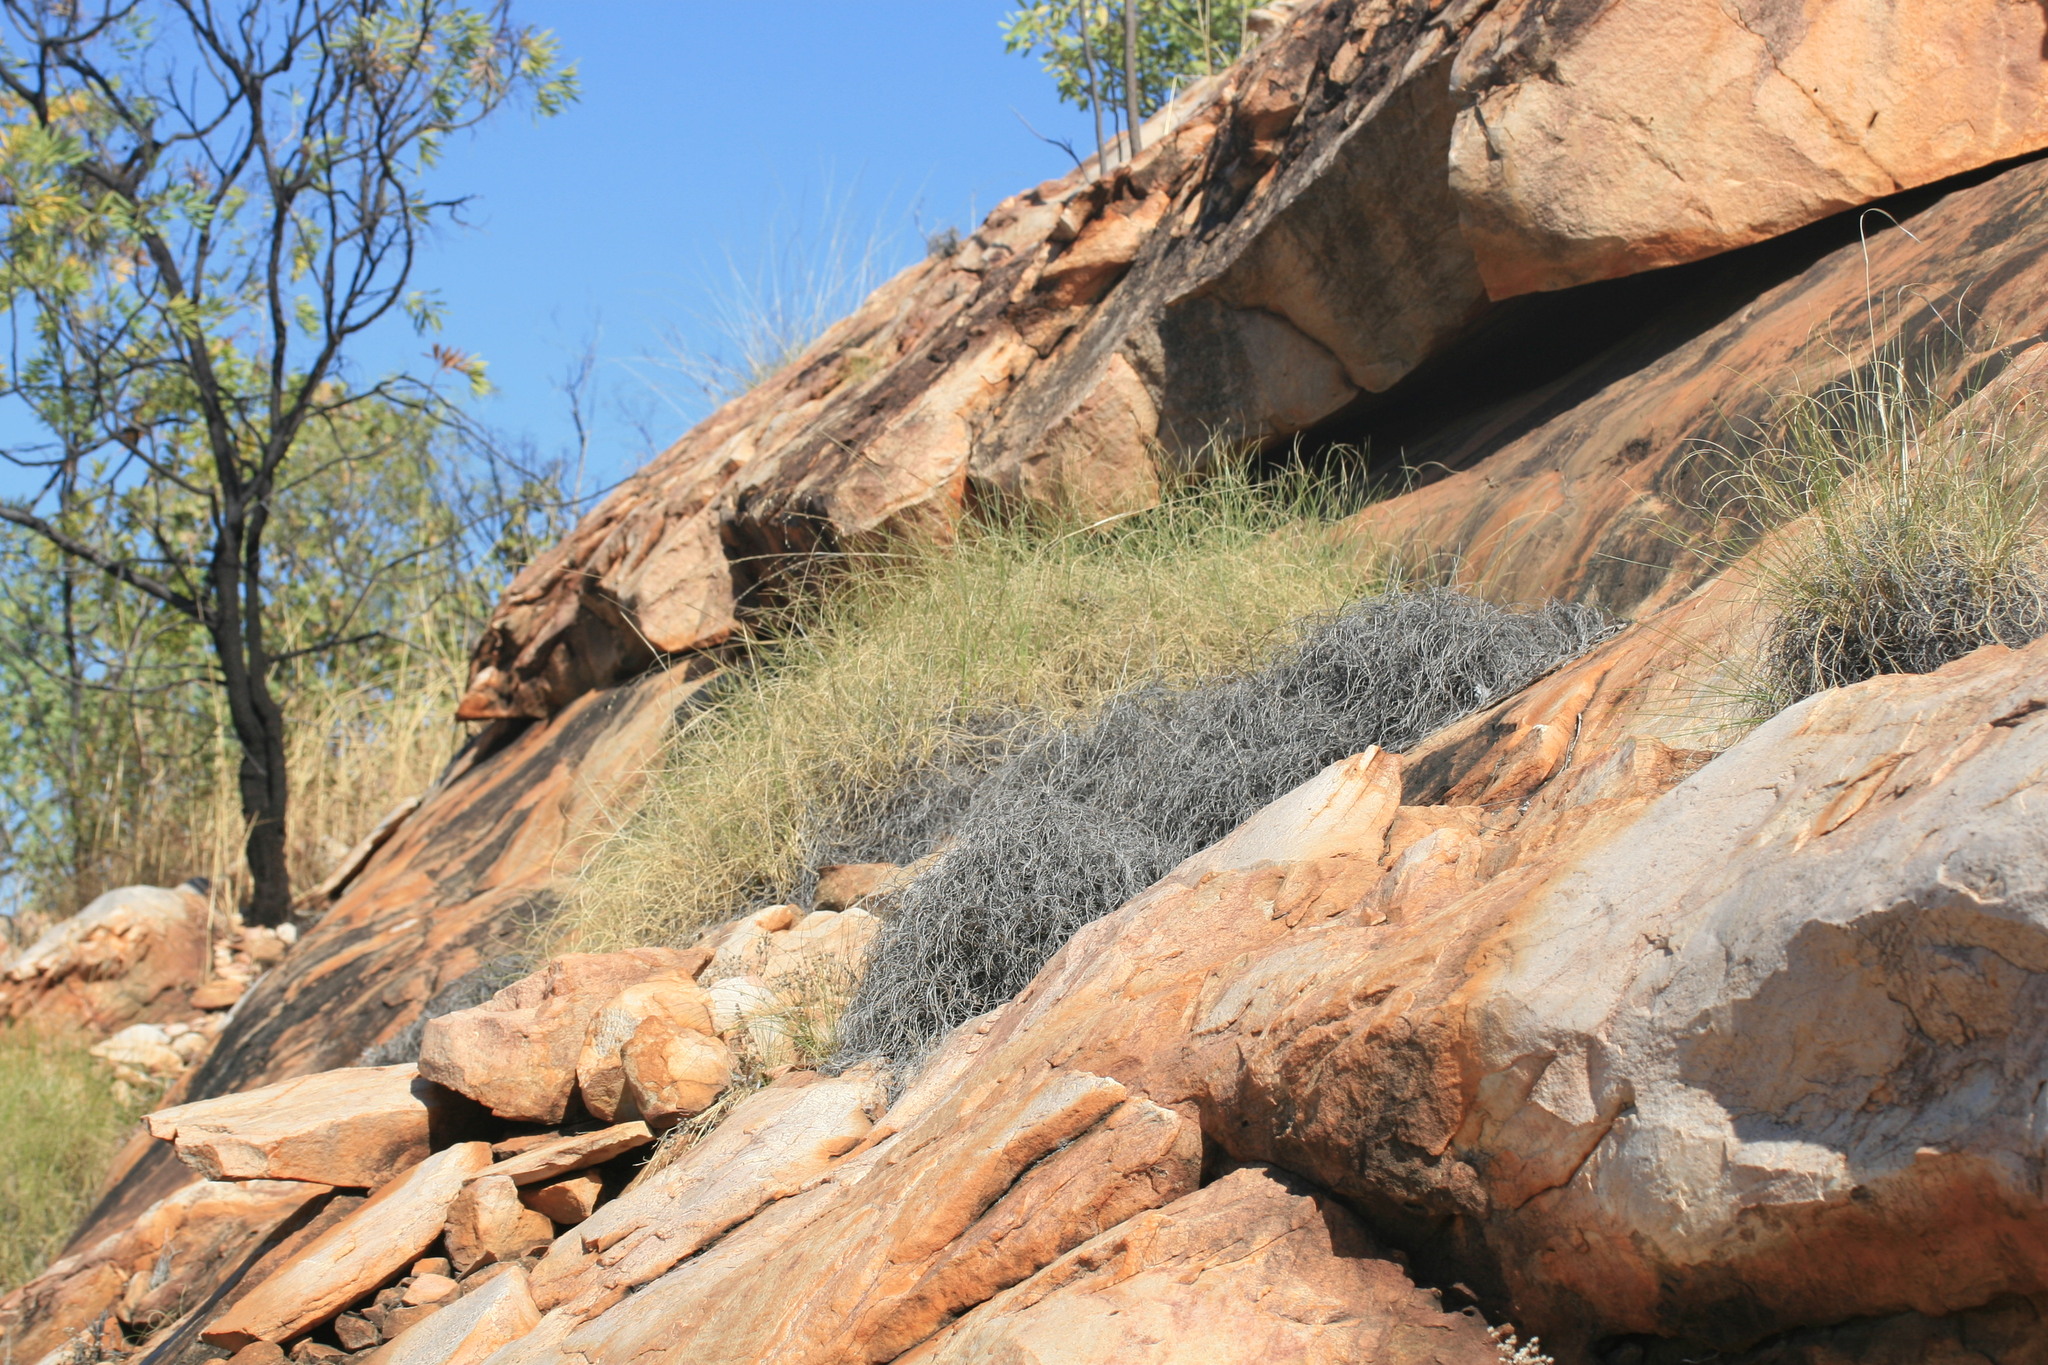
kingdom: Plantae
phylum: Tracheophyta
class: Liliopsida
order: Poales
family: Poaceae
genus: Triodia
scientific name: Triodia epactia
